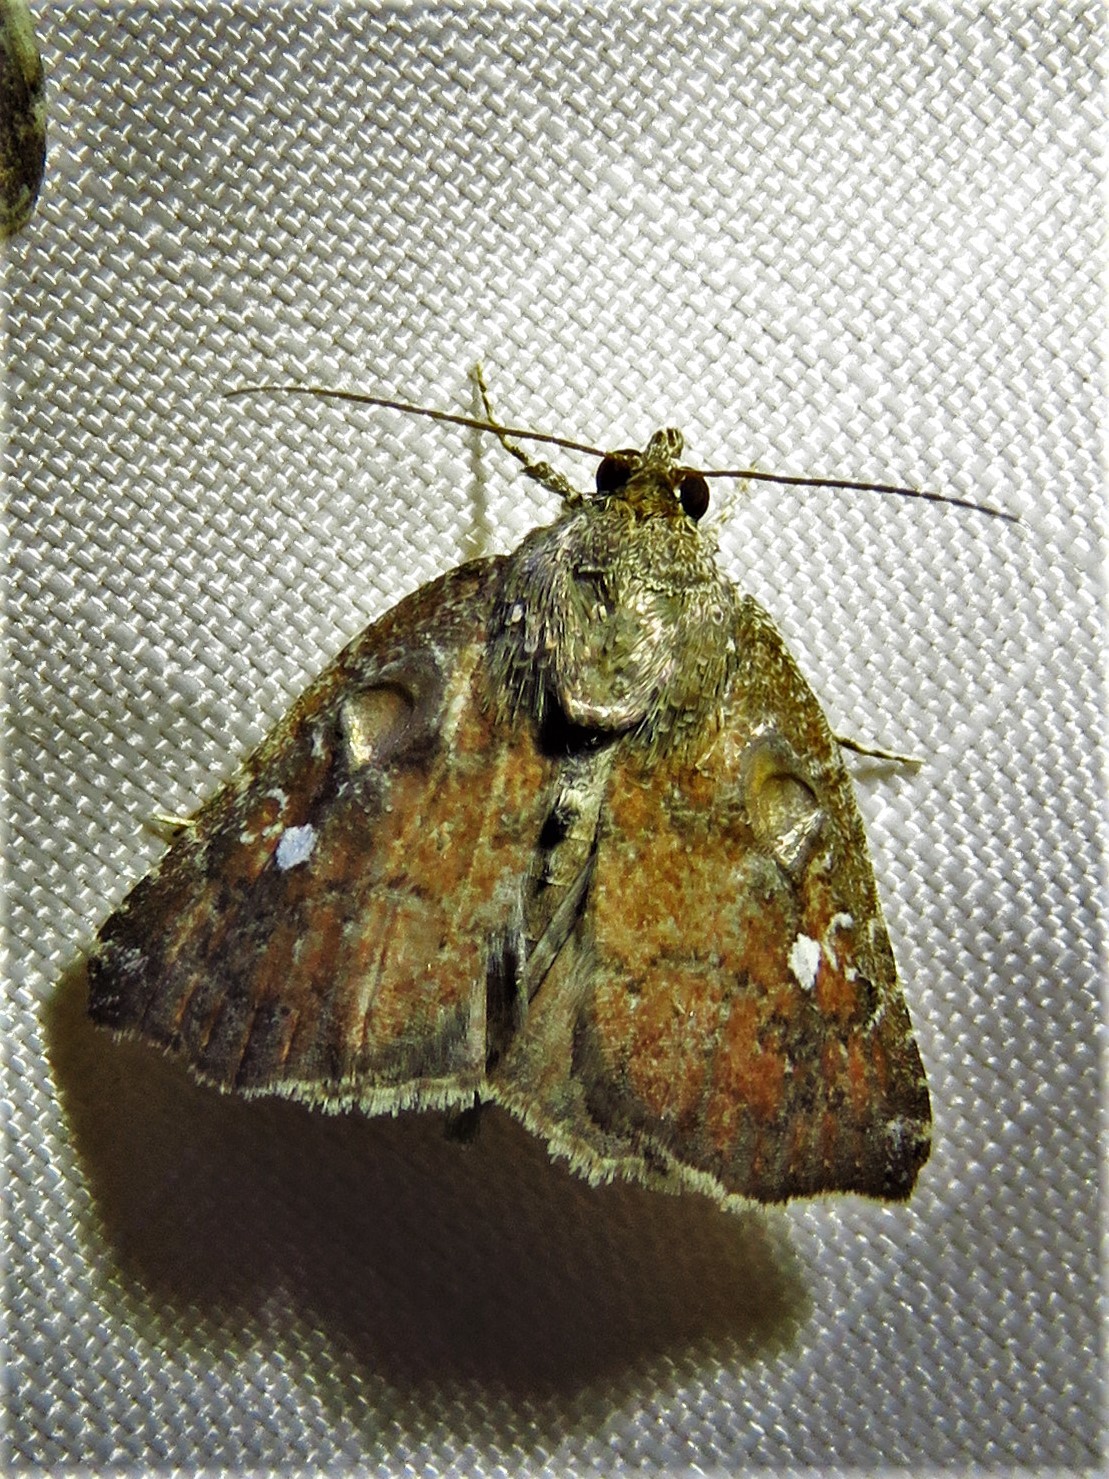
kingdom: Animalia
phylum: Arthropoda
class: Insecta
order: Lepidoptera
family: Noctuidae
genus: Amyna
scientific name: Amyna bullula
